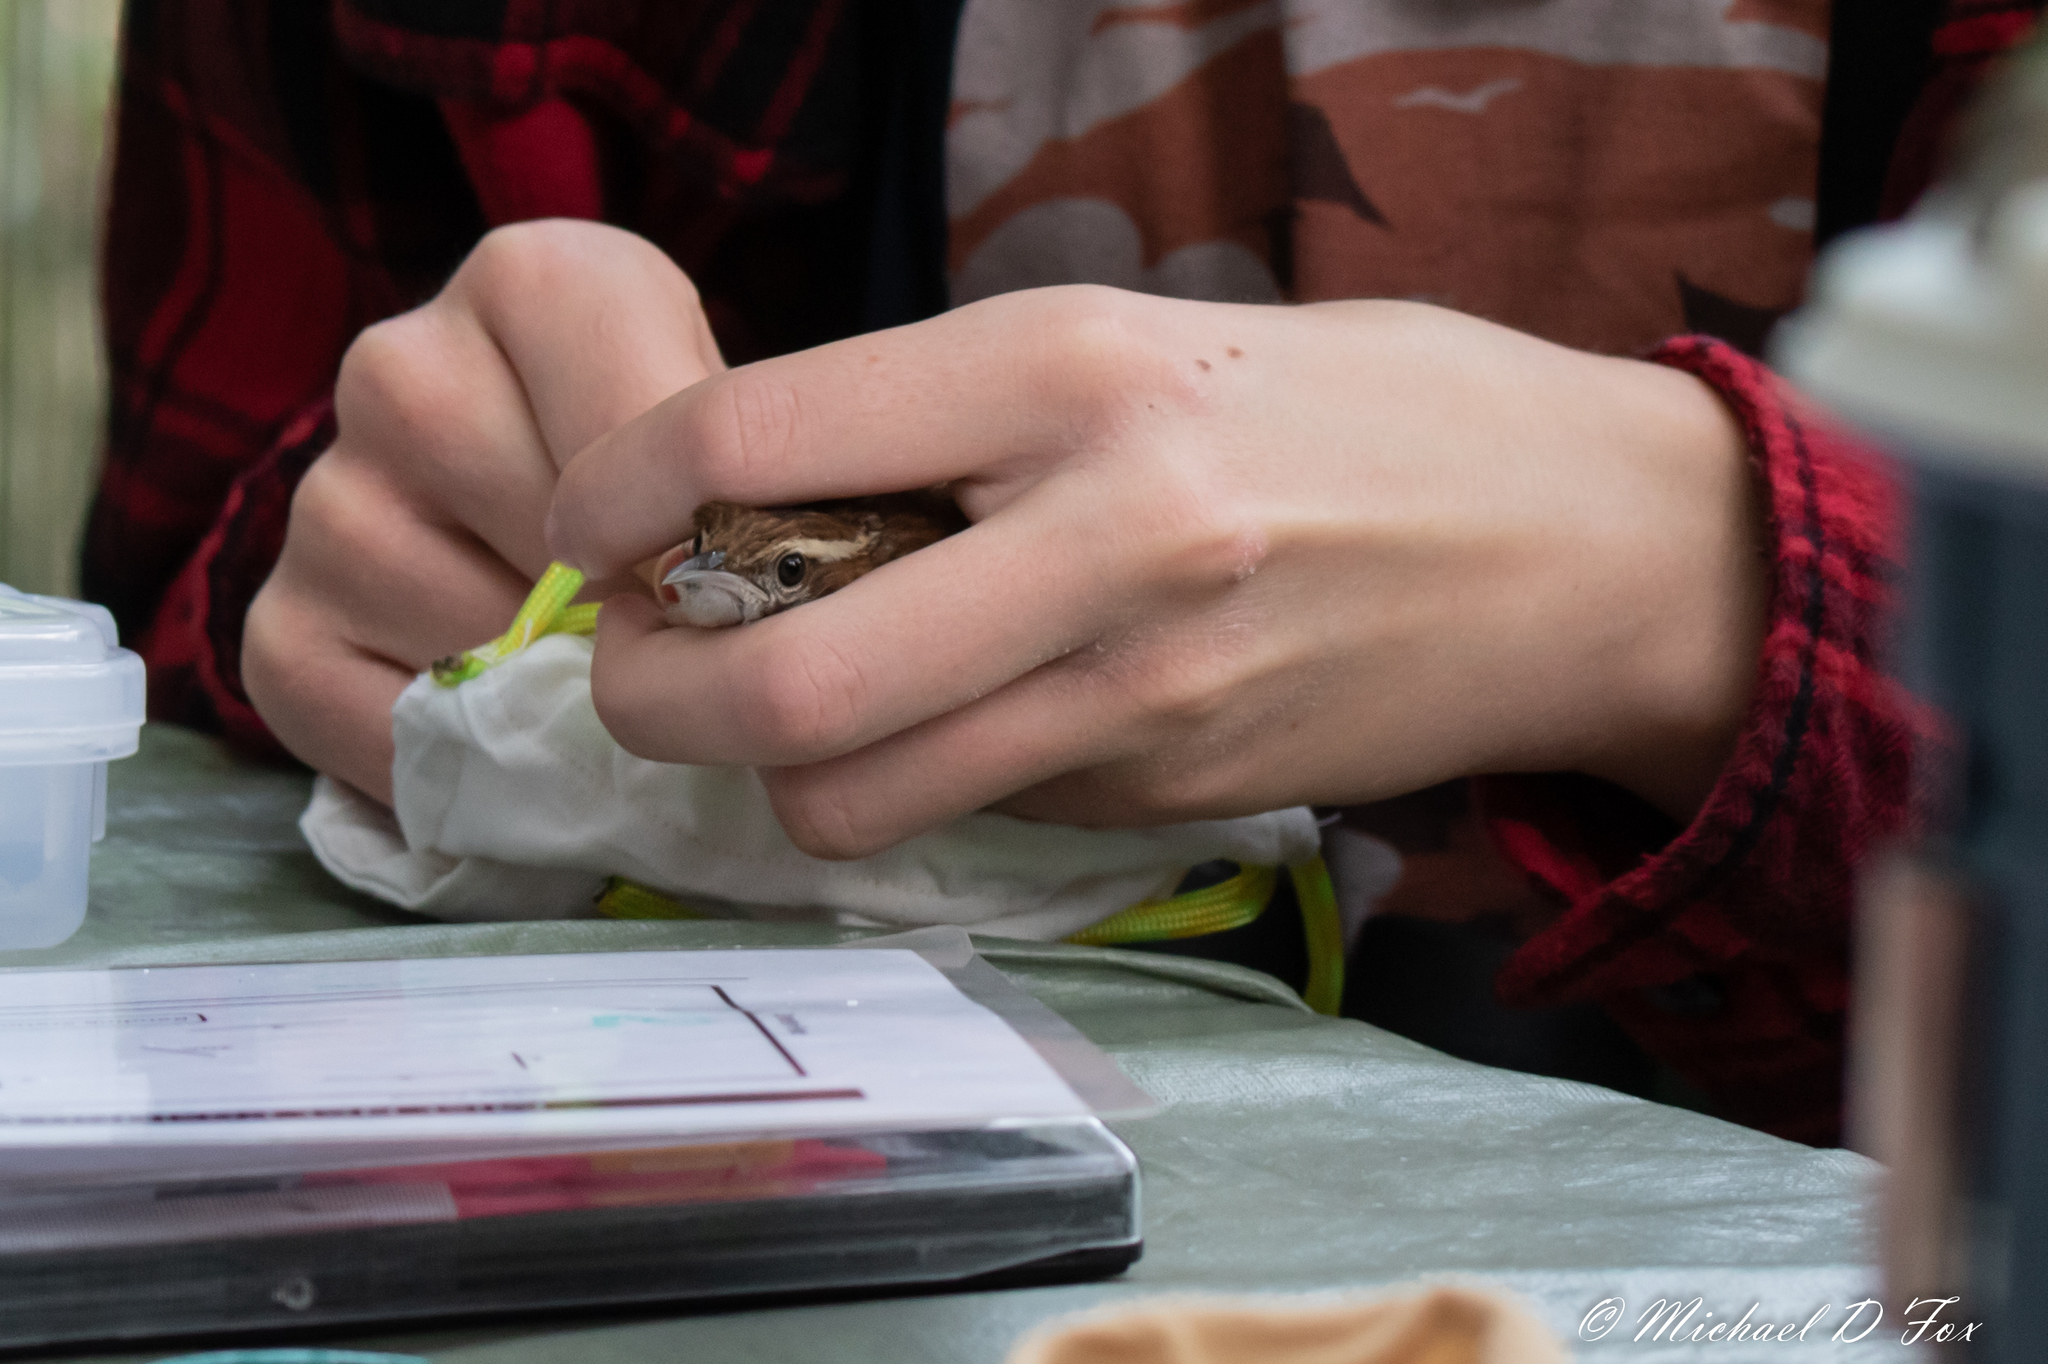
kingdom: Animalia
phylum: Chordata
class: Aves
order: Passeriformes
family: Troglodytidae
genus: Thryothorus
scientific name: Thryothorus ludovicianus
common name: Carolina wren
